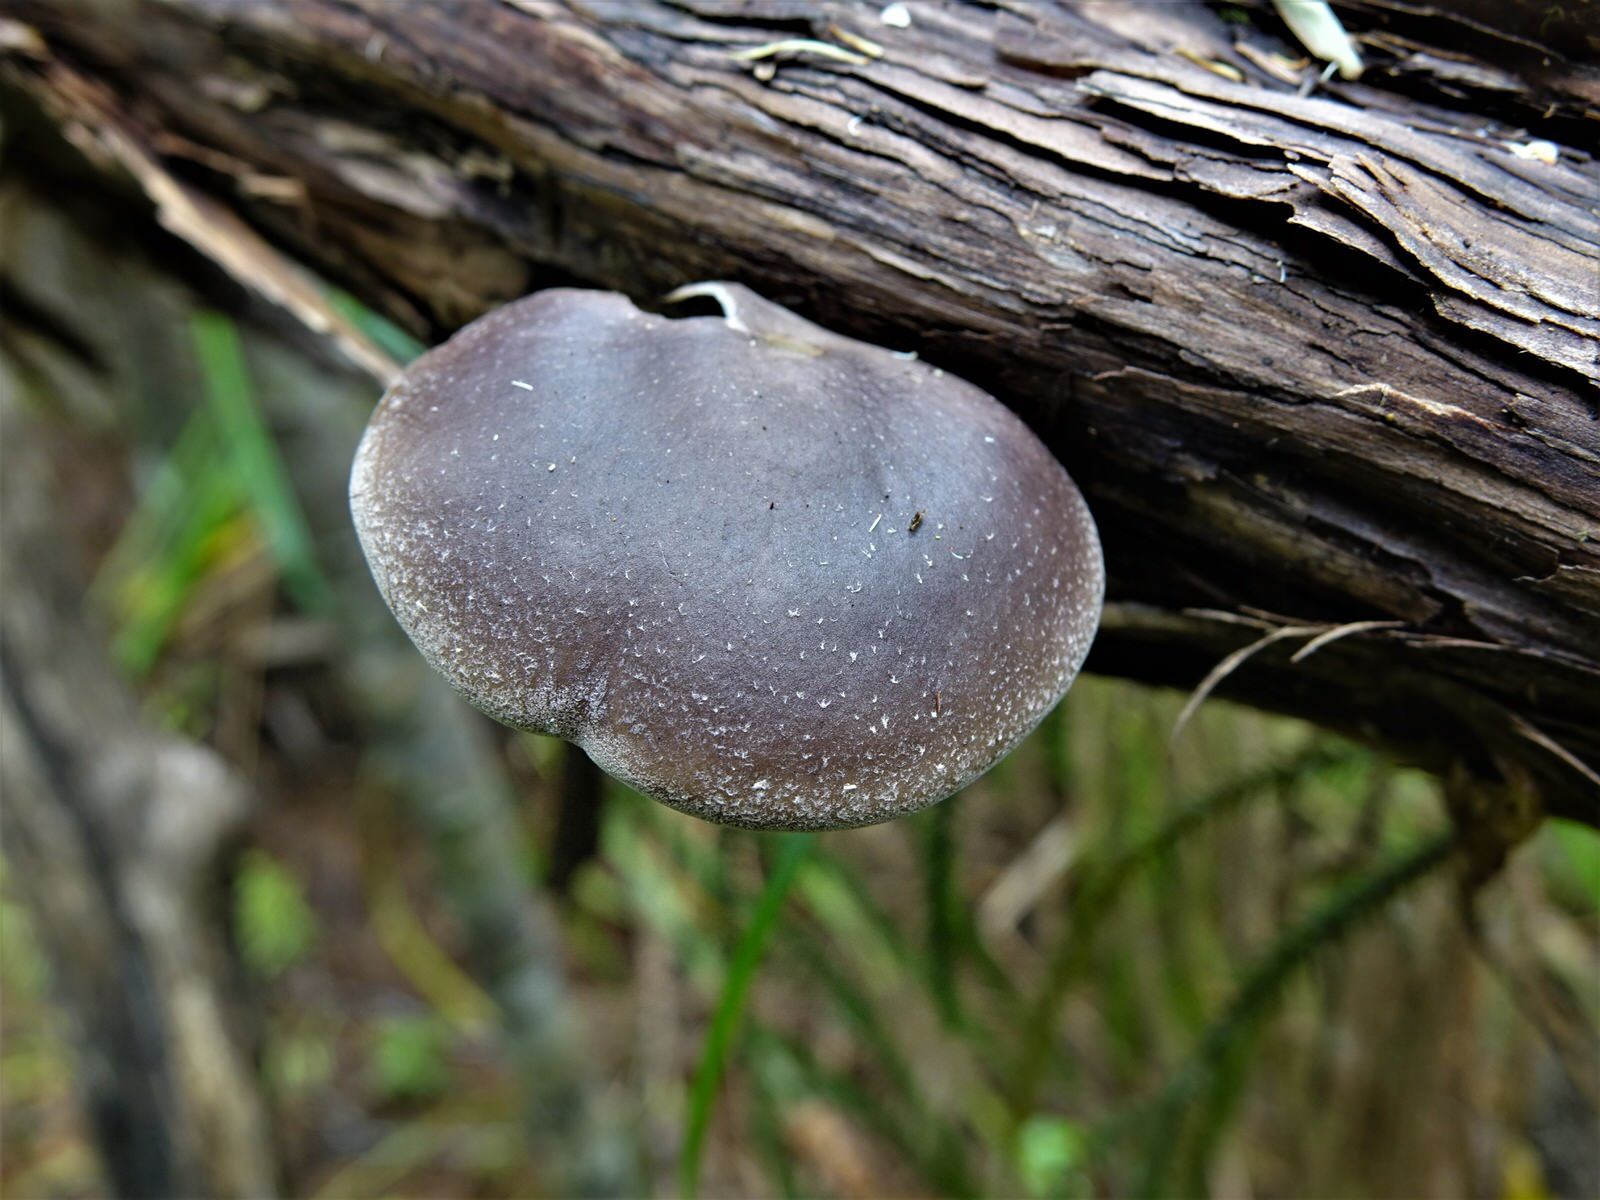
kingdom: Fungi
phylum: Basidiomycota
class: Agaricomycetes
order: Agaricales
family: Pleurotaceae
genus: Pleurotus
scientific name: Pleurotus australis
